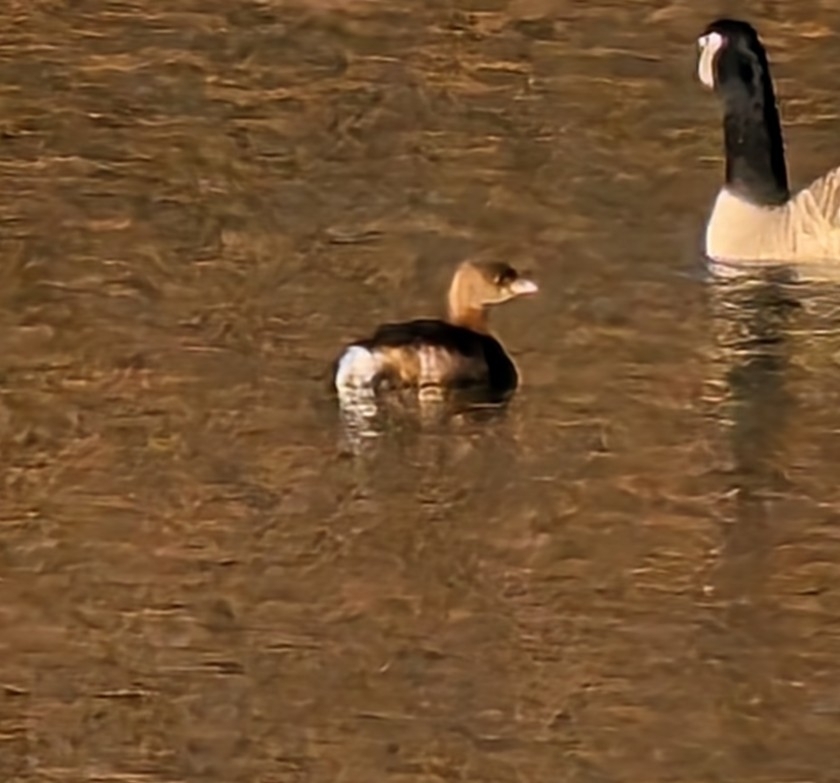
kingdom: Animalia
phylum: Chordata
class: Aves
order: Podicipediformes
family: Podicipedidae
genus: Podilymbus
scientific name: Podilymbus podiceps
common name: Pied-billed grebe
